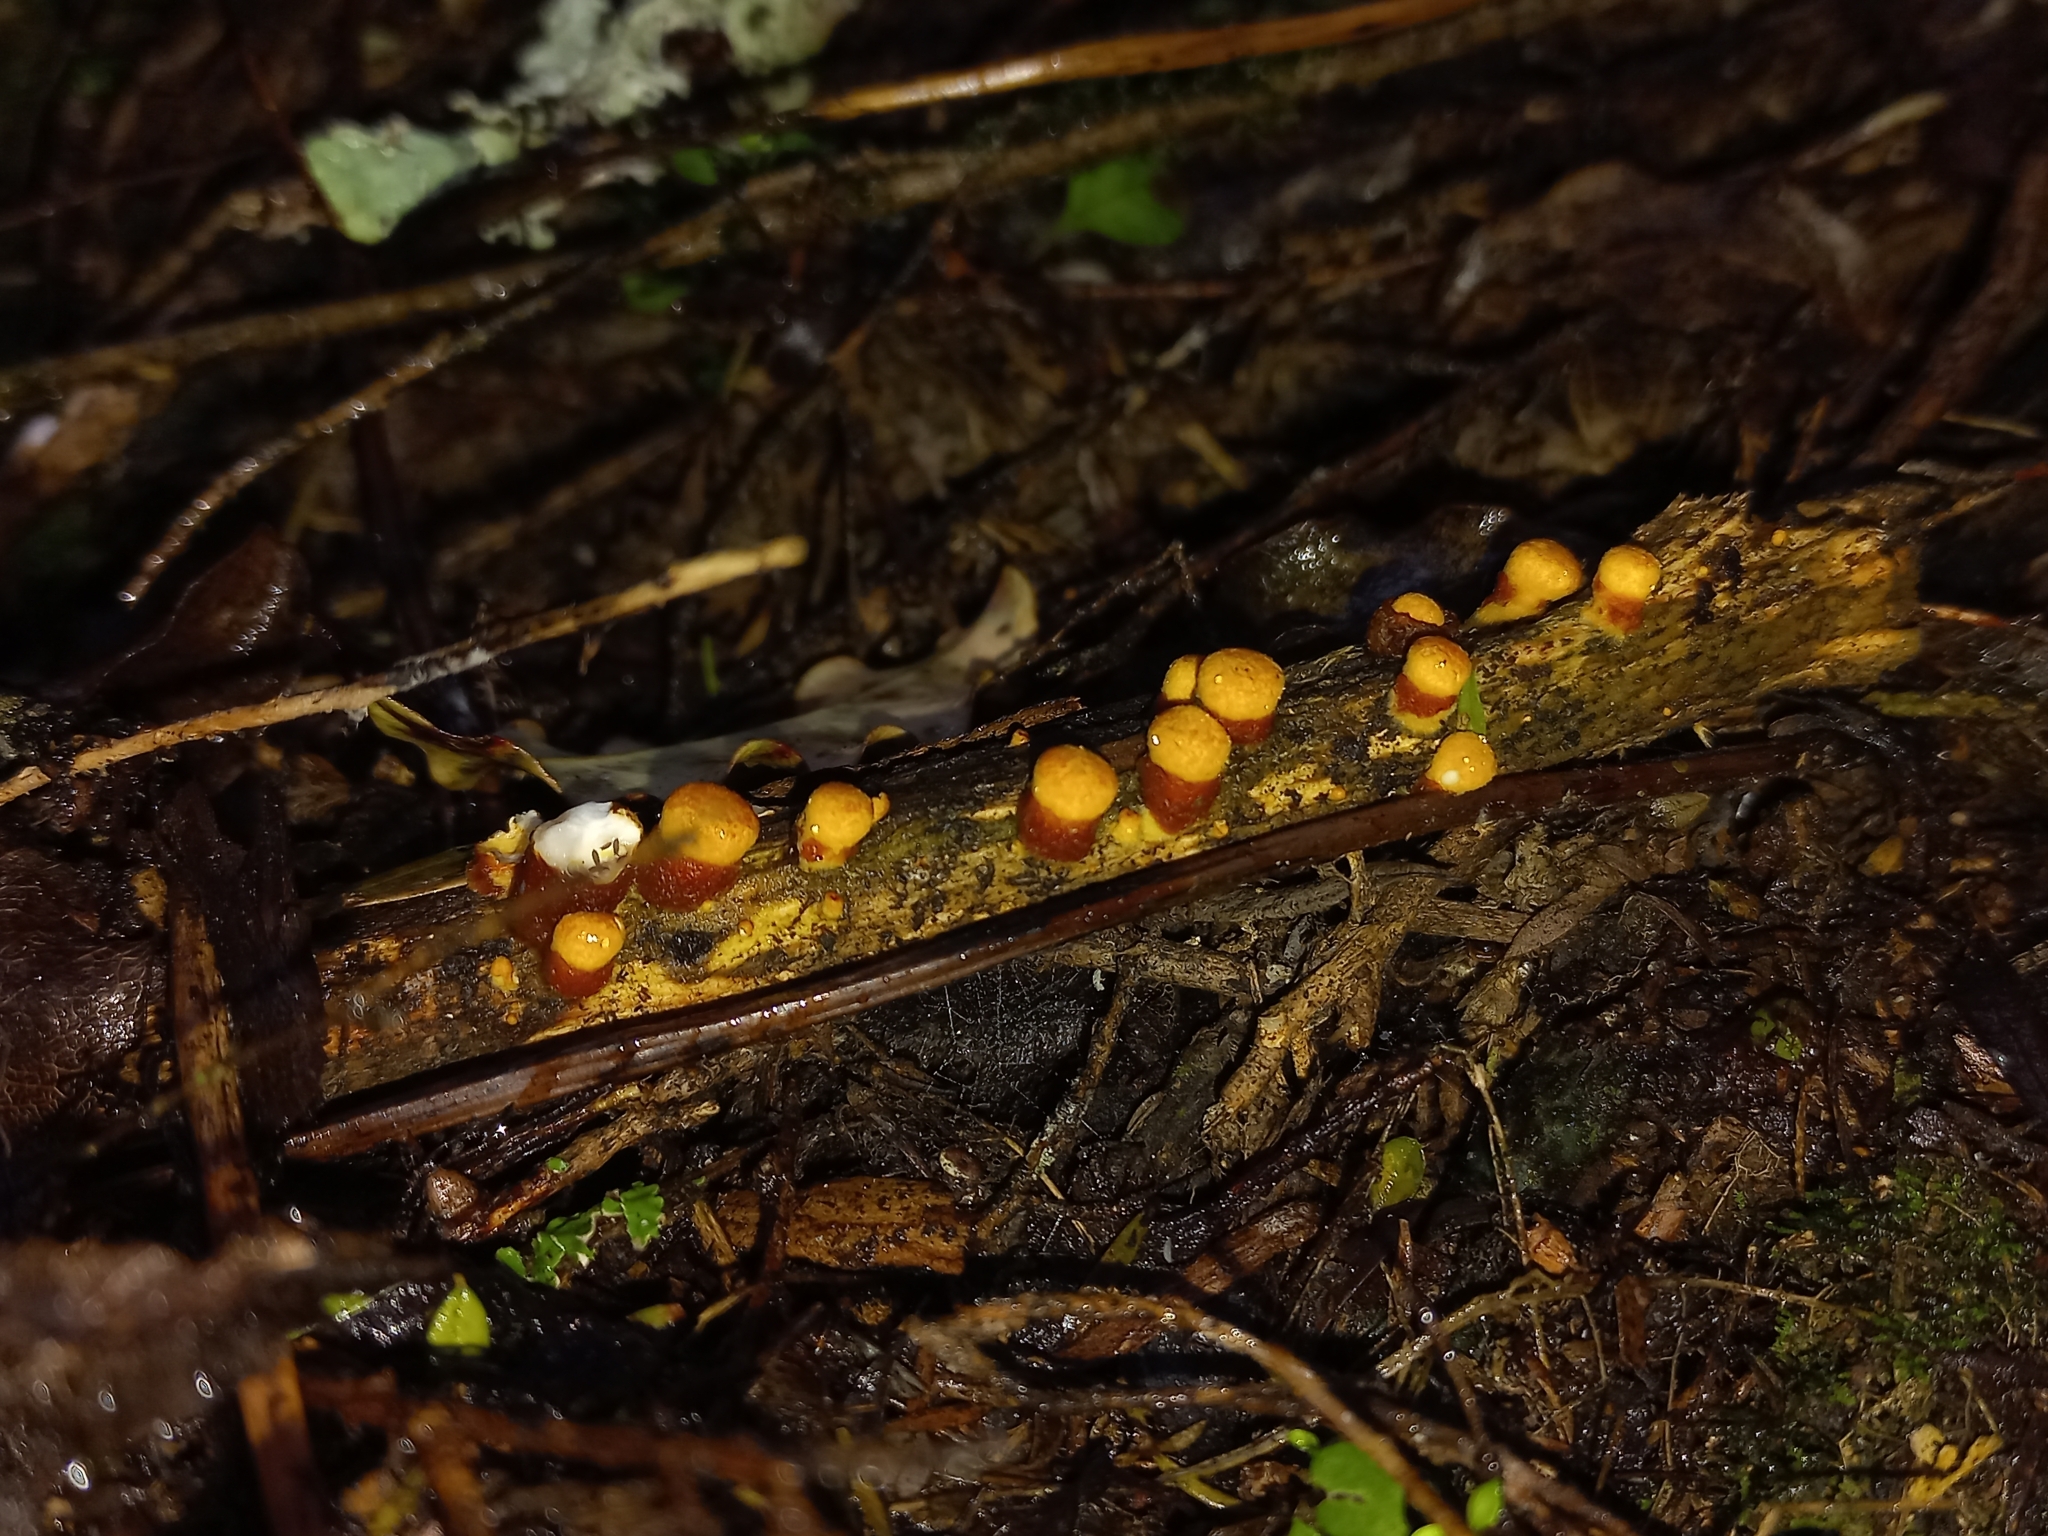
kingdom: Fungi
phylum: Basidiomycota
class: Agaricomycetes
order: Agaricales
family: Nidulariaceae
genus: Crucibulum
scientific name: Crucibulum simile
